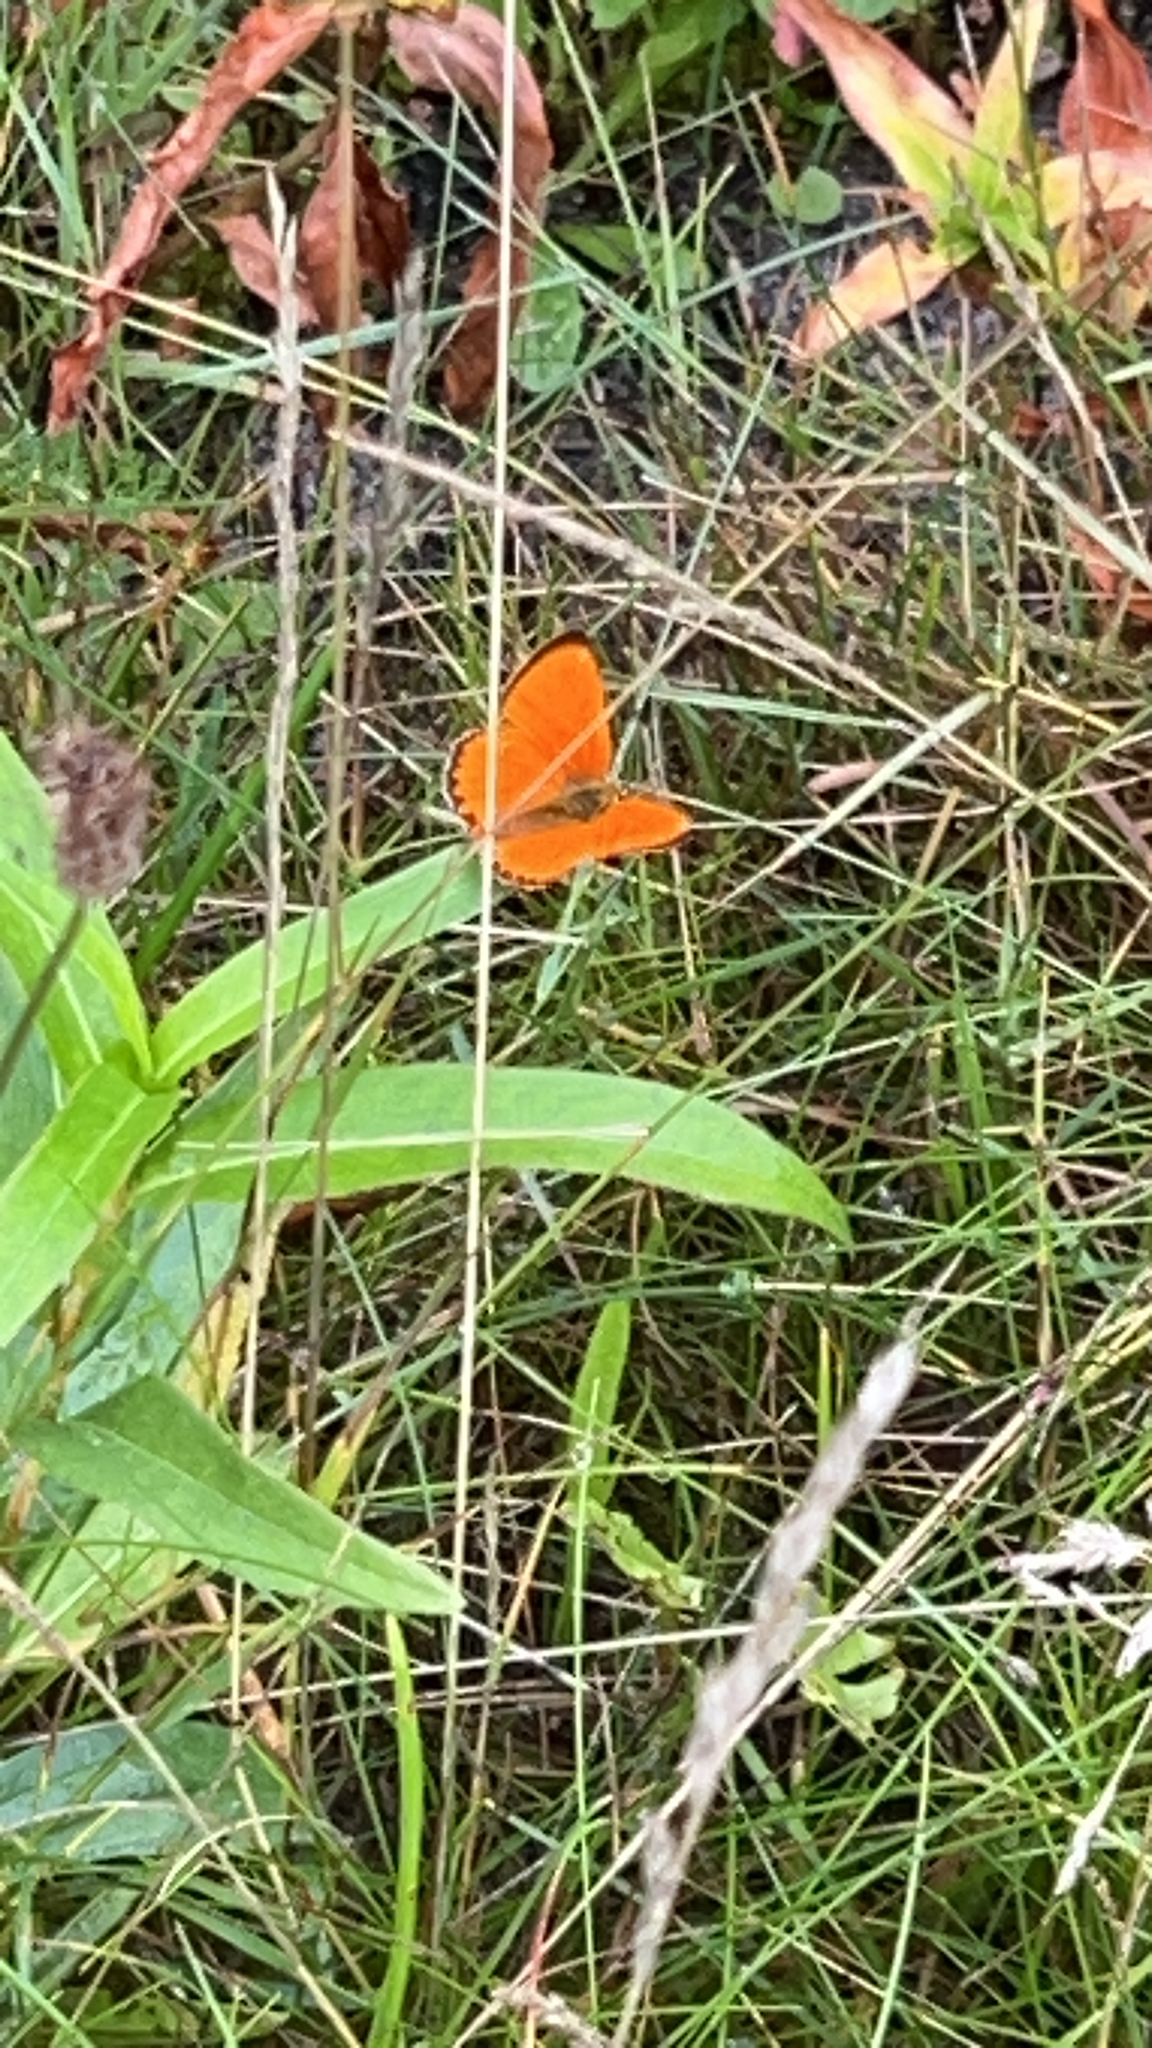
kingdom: Animalia
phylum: Arthropoda
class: Insecta
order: Lepidoptera
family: Lycaenidae
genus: Lycaena
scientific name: Lycaena virgaureae
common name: Scarce copper
